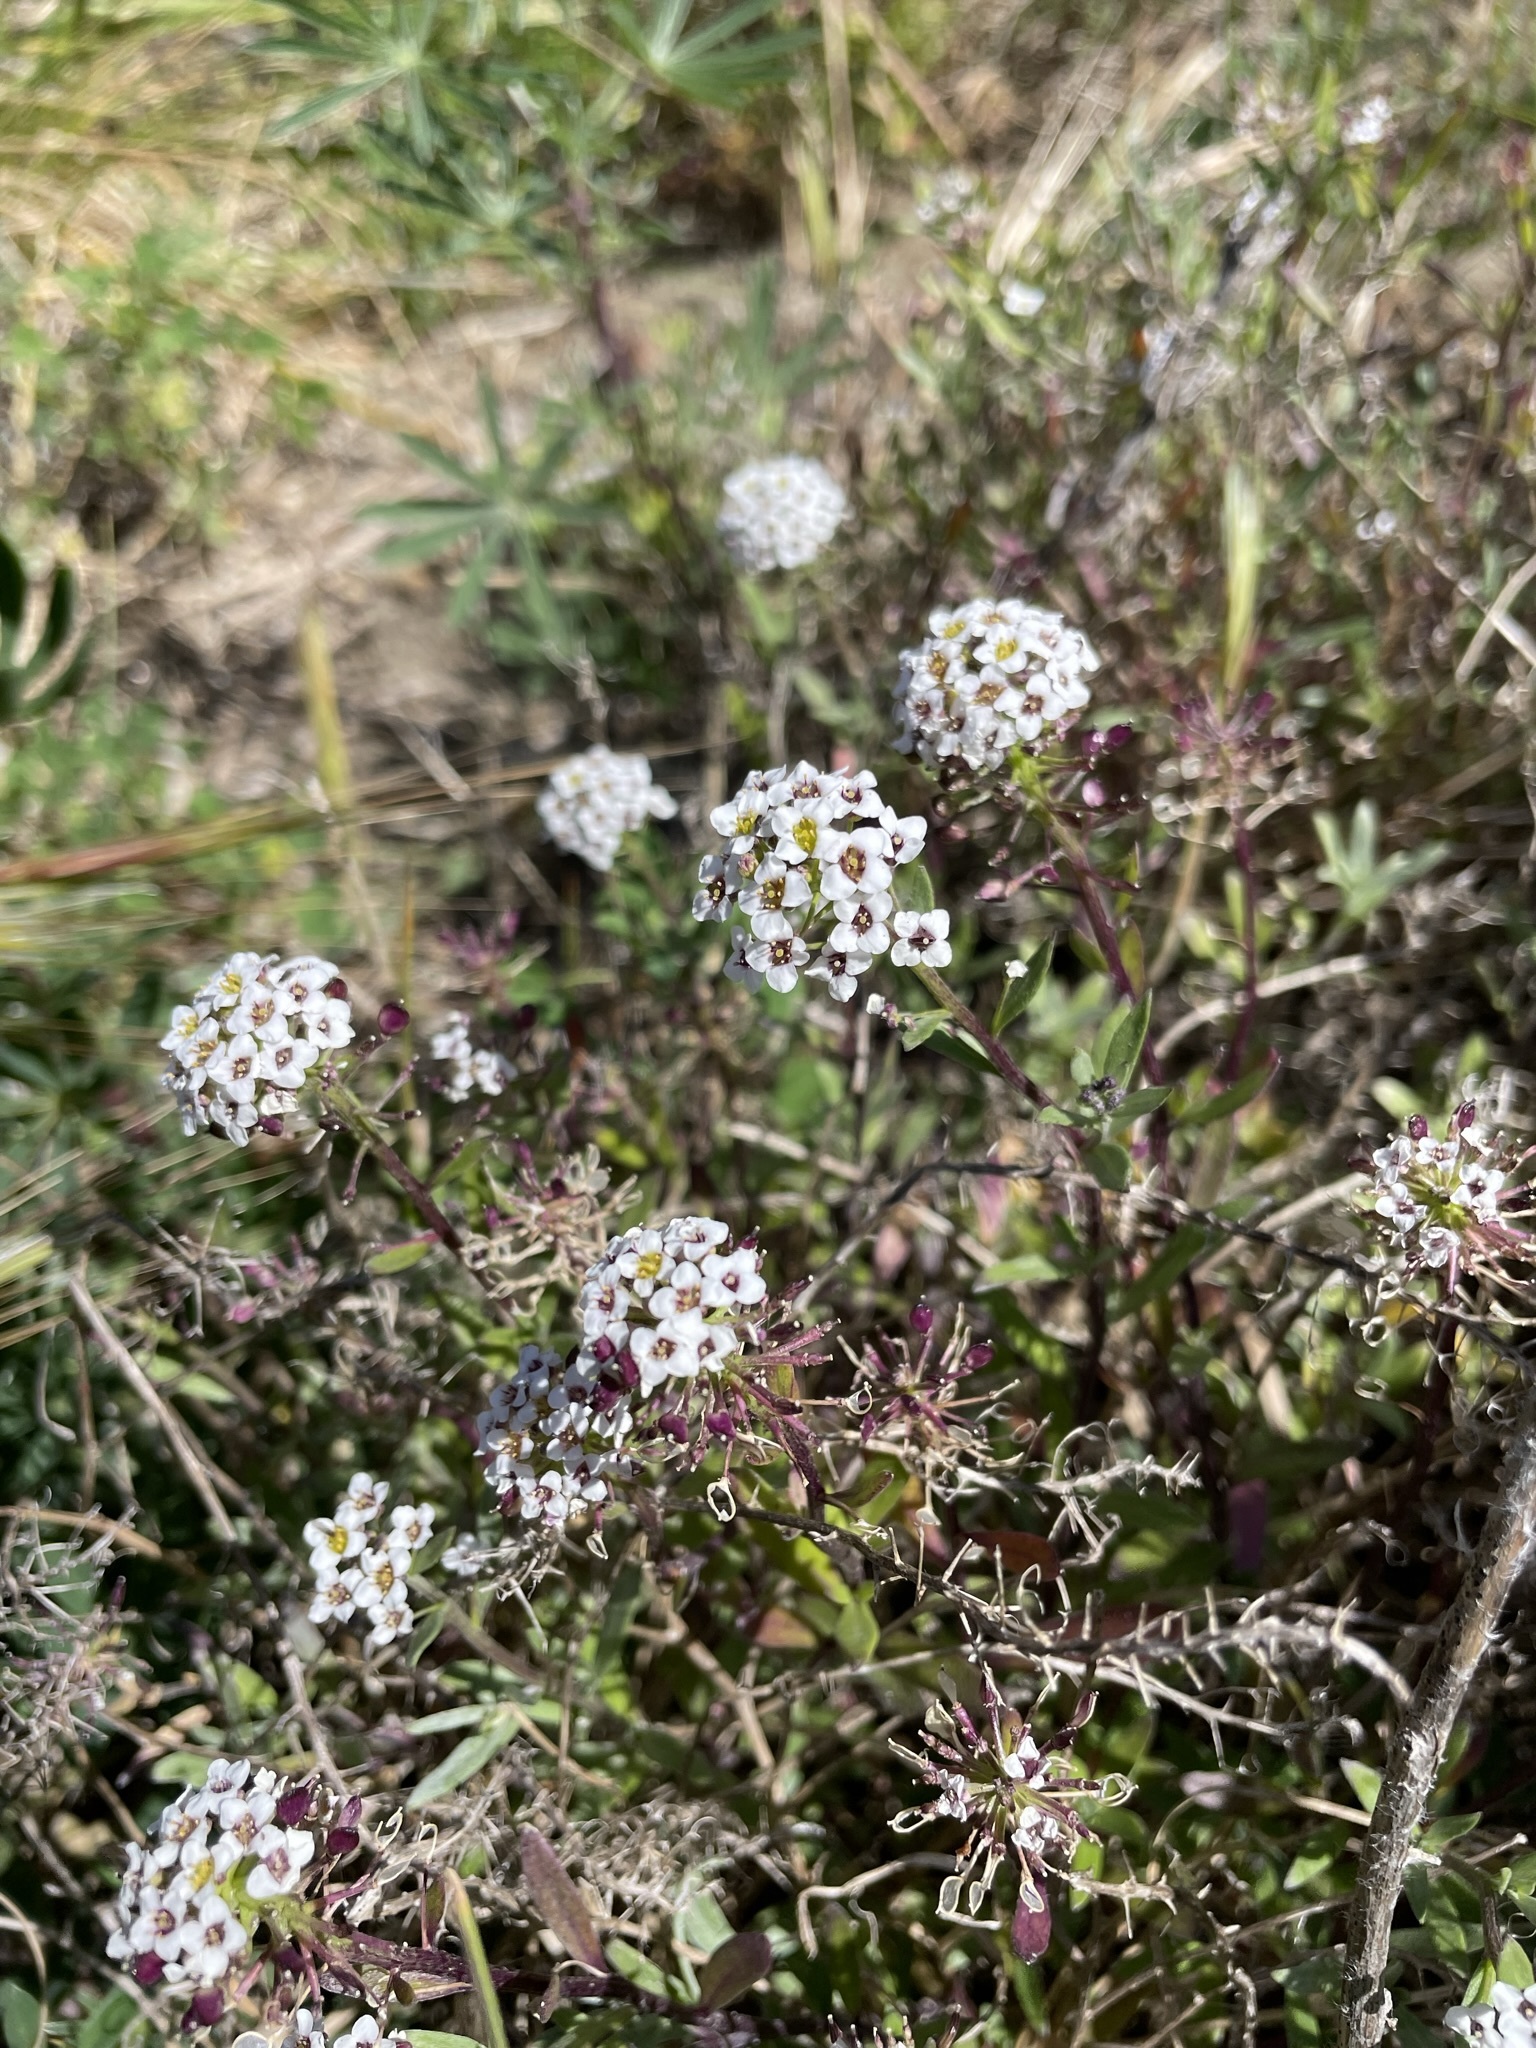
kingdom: Plantae
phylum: Tracheophyta
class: Magnoliopsida
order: Brassicales
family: Brassicaceae
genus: Lobularia
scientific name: Lobularia maritima
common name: Sweet alison
